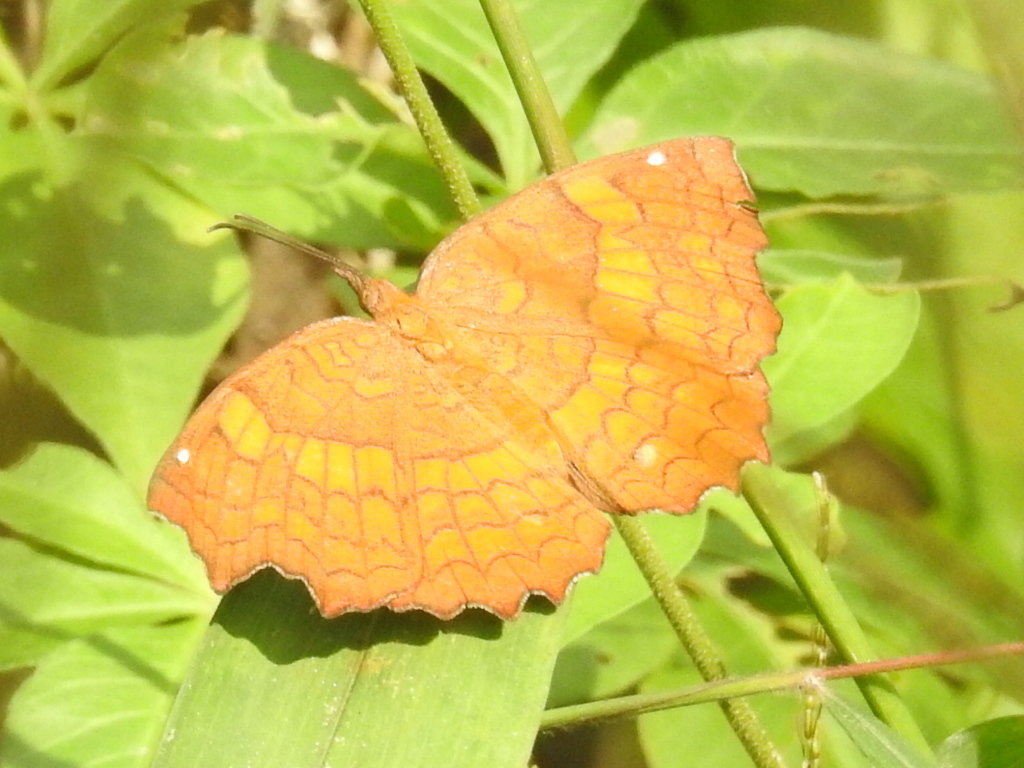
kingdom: Animalia
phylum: Arthropoda
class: Insecta
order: Lepidoptera
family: Nymphalidae
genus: Ariadne
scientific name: Ariadne ariadne
